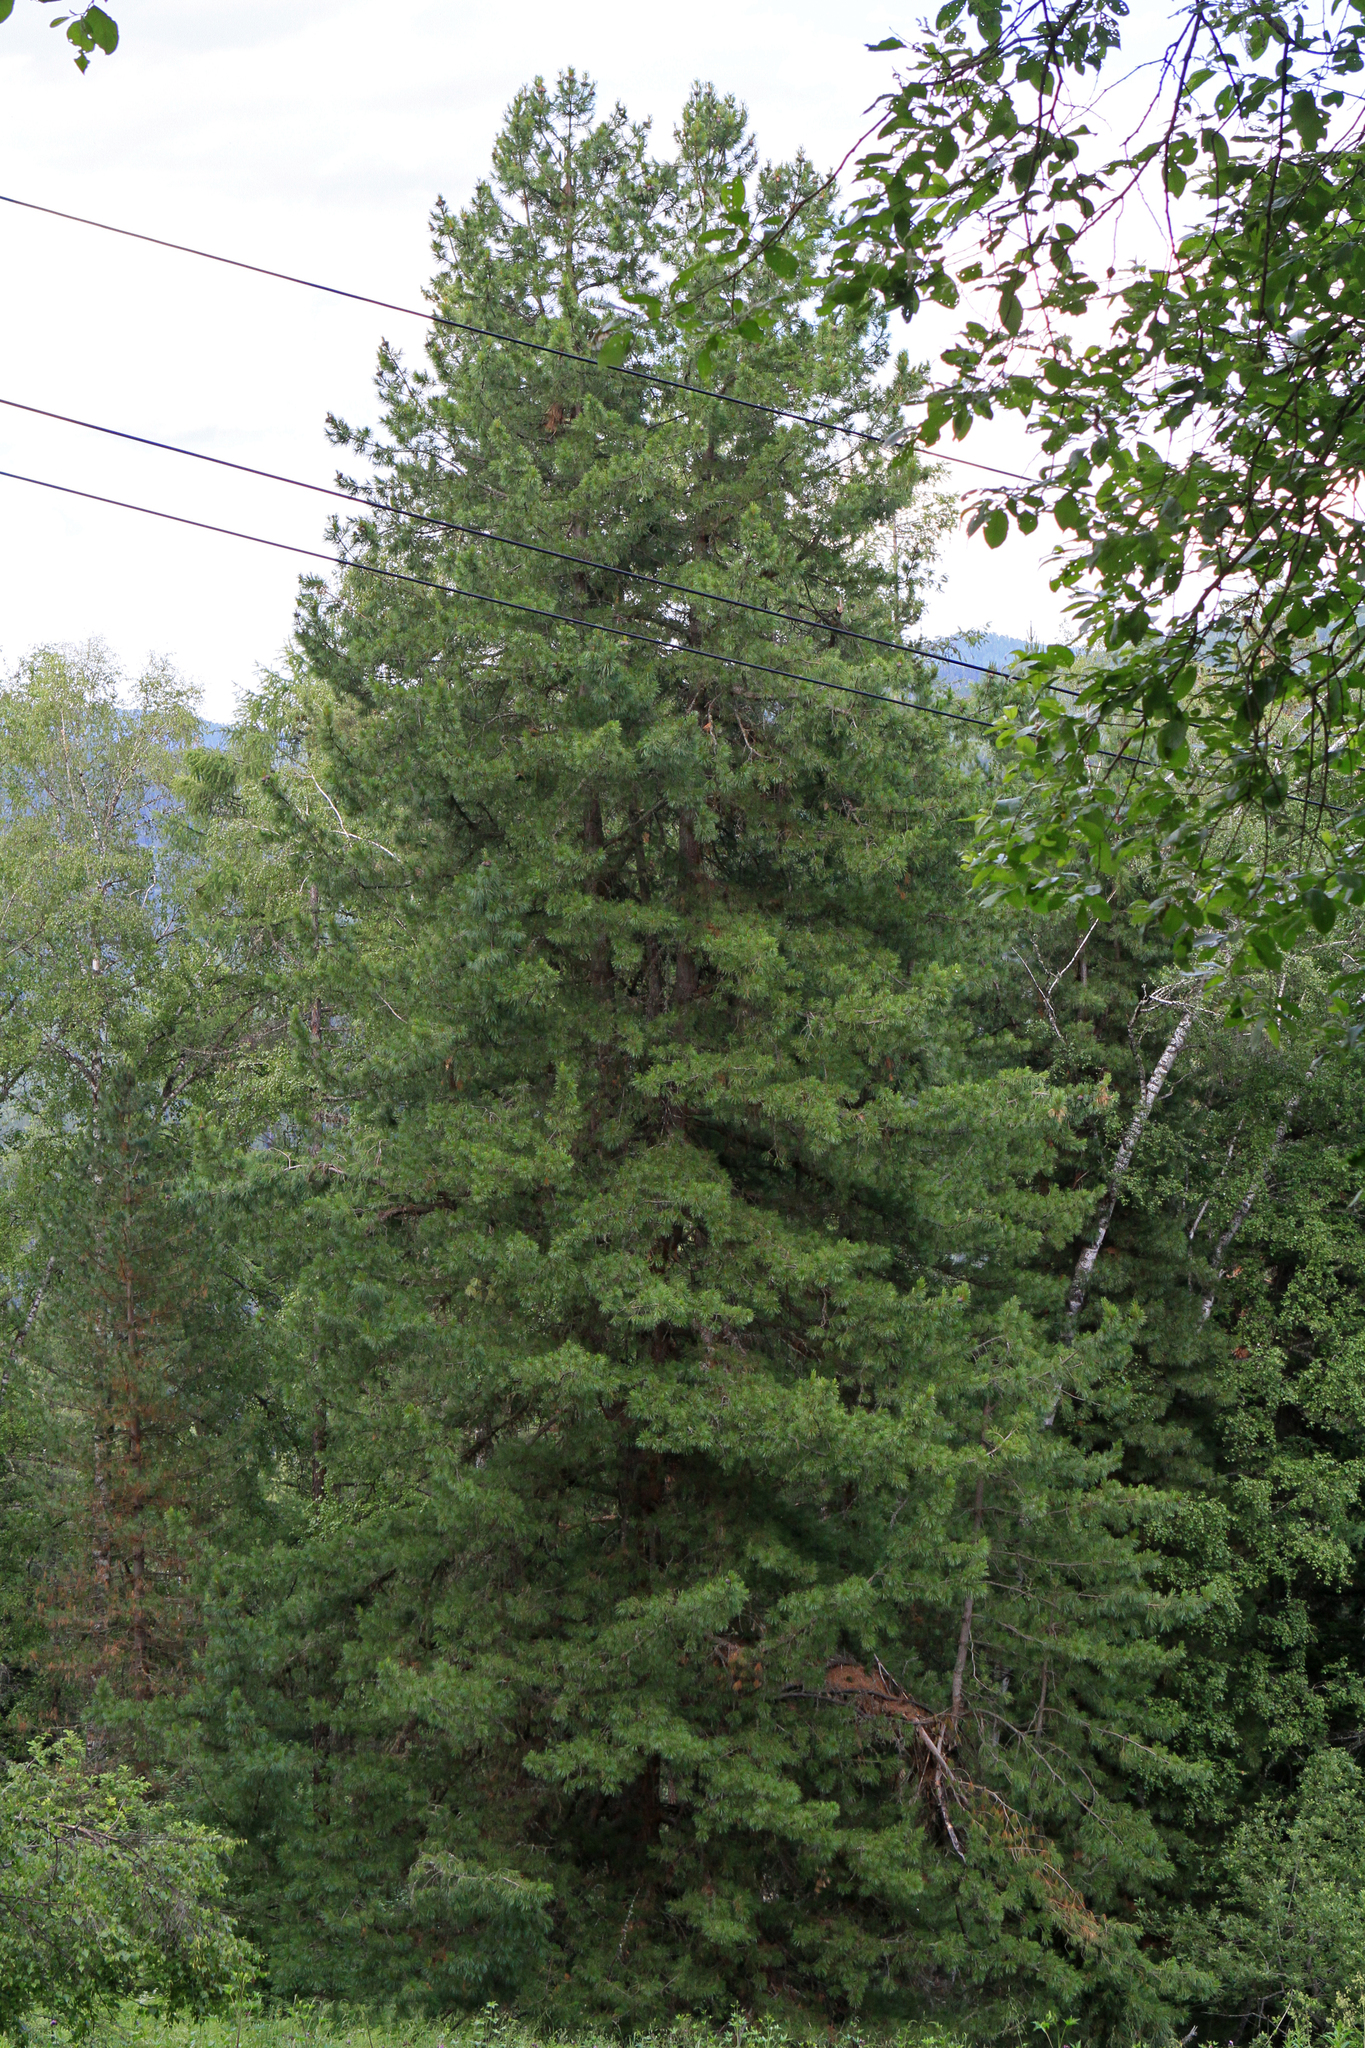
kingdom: Plantae
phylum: Tracheophyta
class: Pinopsida
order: Pinales
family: Pinaceae
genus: Pinus
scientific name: Pinus sibirica
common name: Siberian pine
